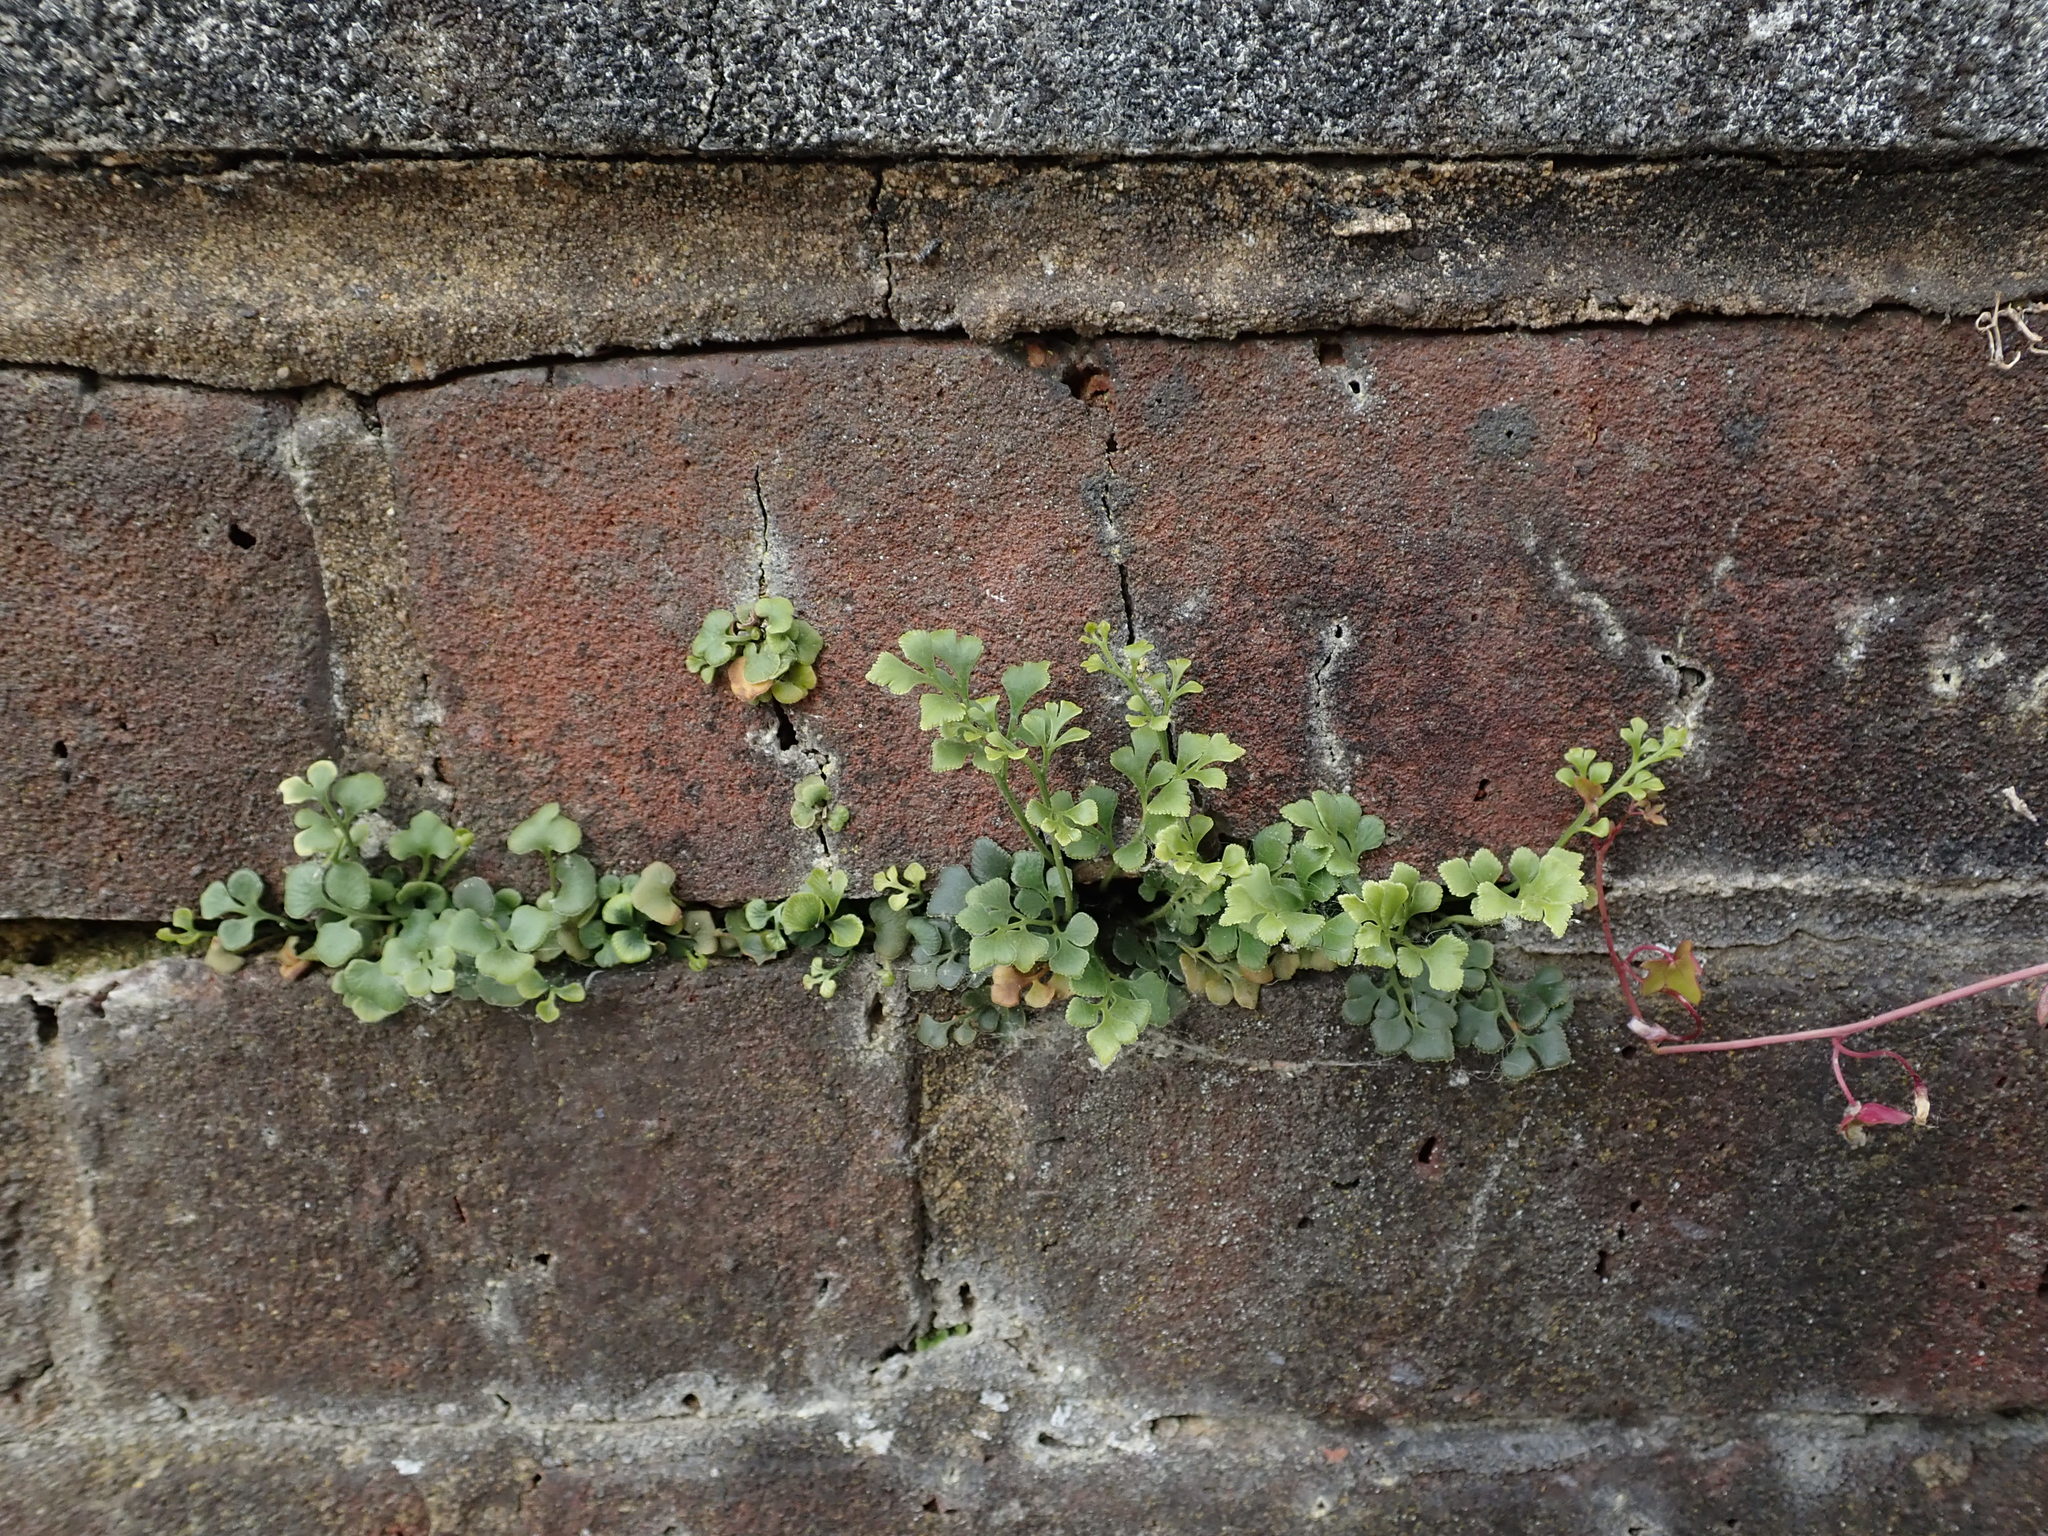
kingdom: Plantae
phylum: Tracheophyta
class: Polypodiopsida
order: Polypodiales
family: Aspleniaceae
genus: Asplenium
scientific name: Asplenium ruta-muraria
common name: Wall-rue
